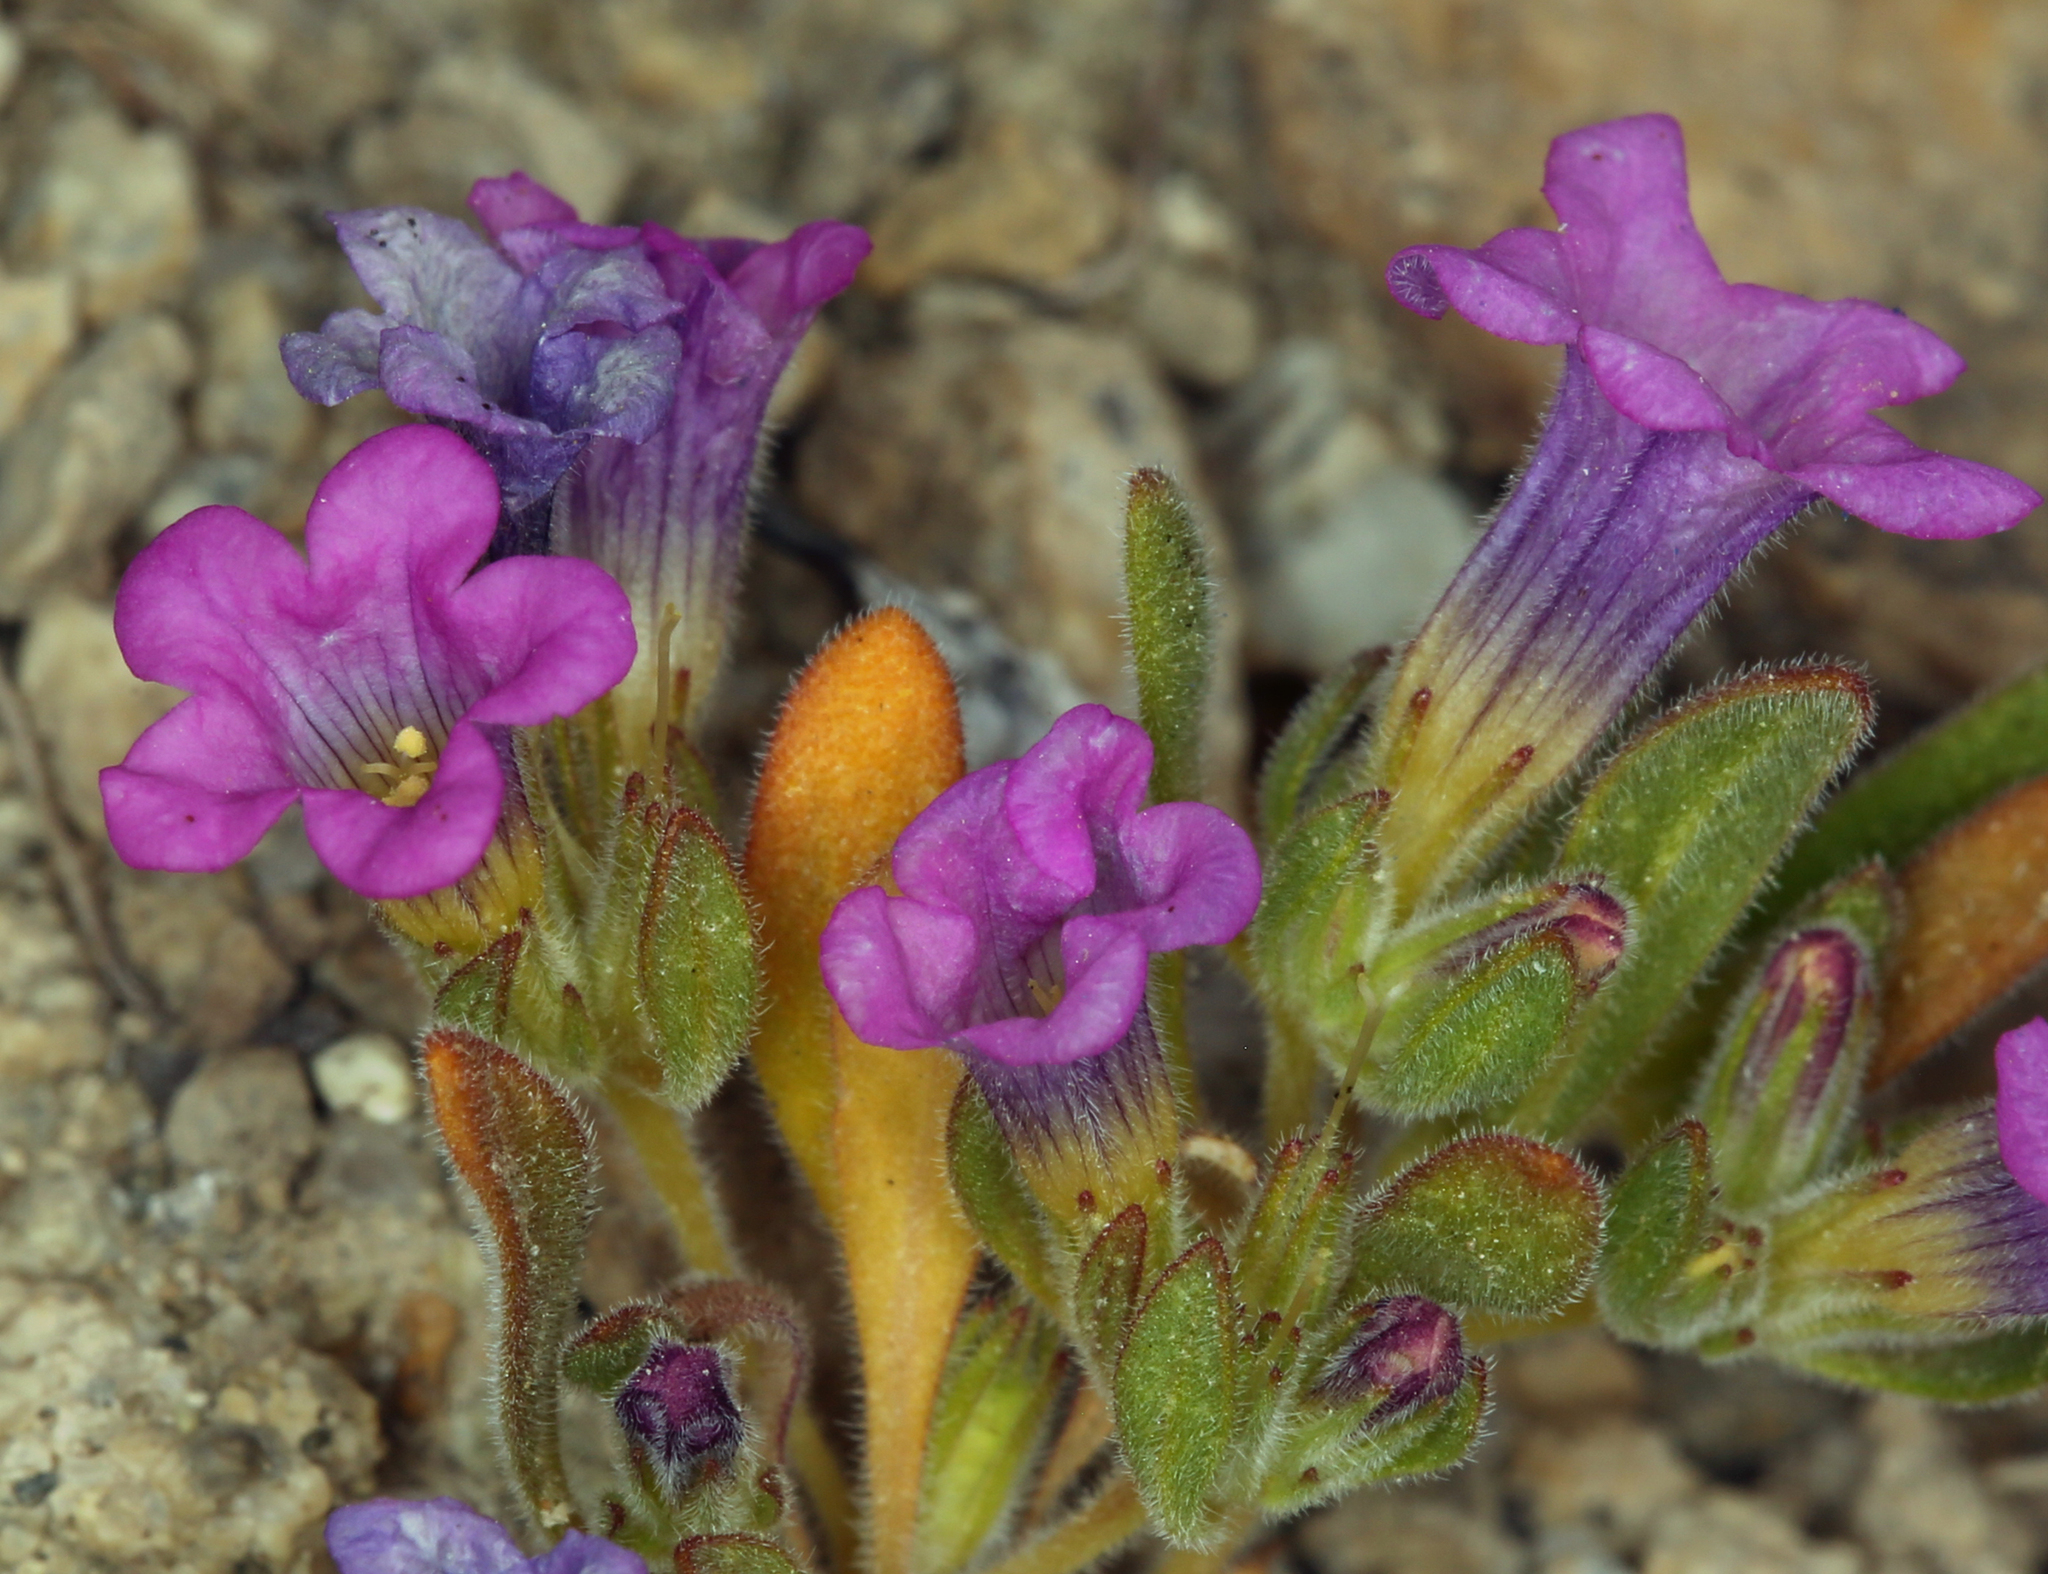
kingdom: Plantae
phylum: Tracheophyta
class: Magnoliopsida
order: Boraginales
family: Namaceae
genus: Nama
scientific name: Nama demissa
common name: Leafy nama
